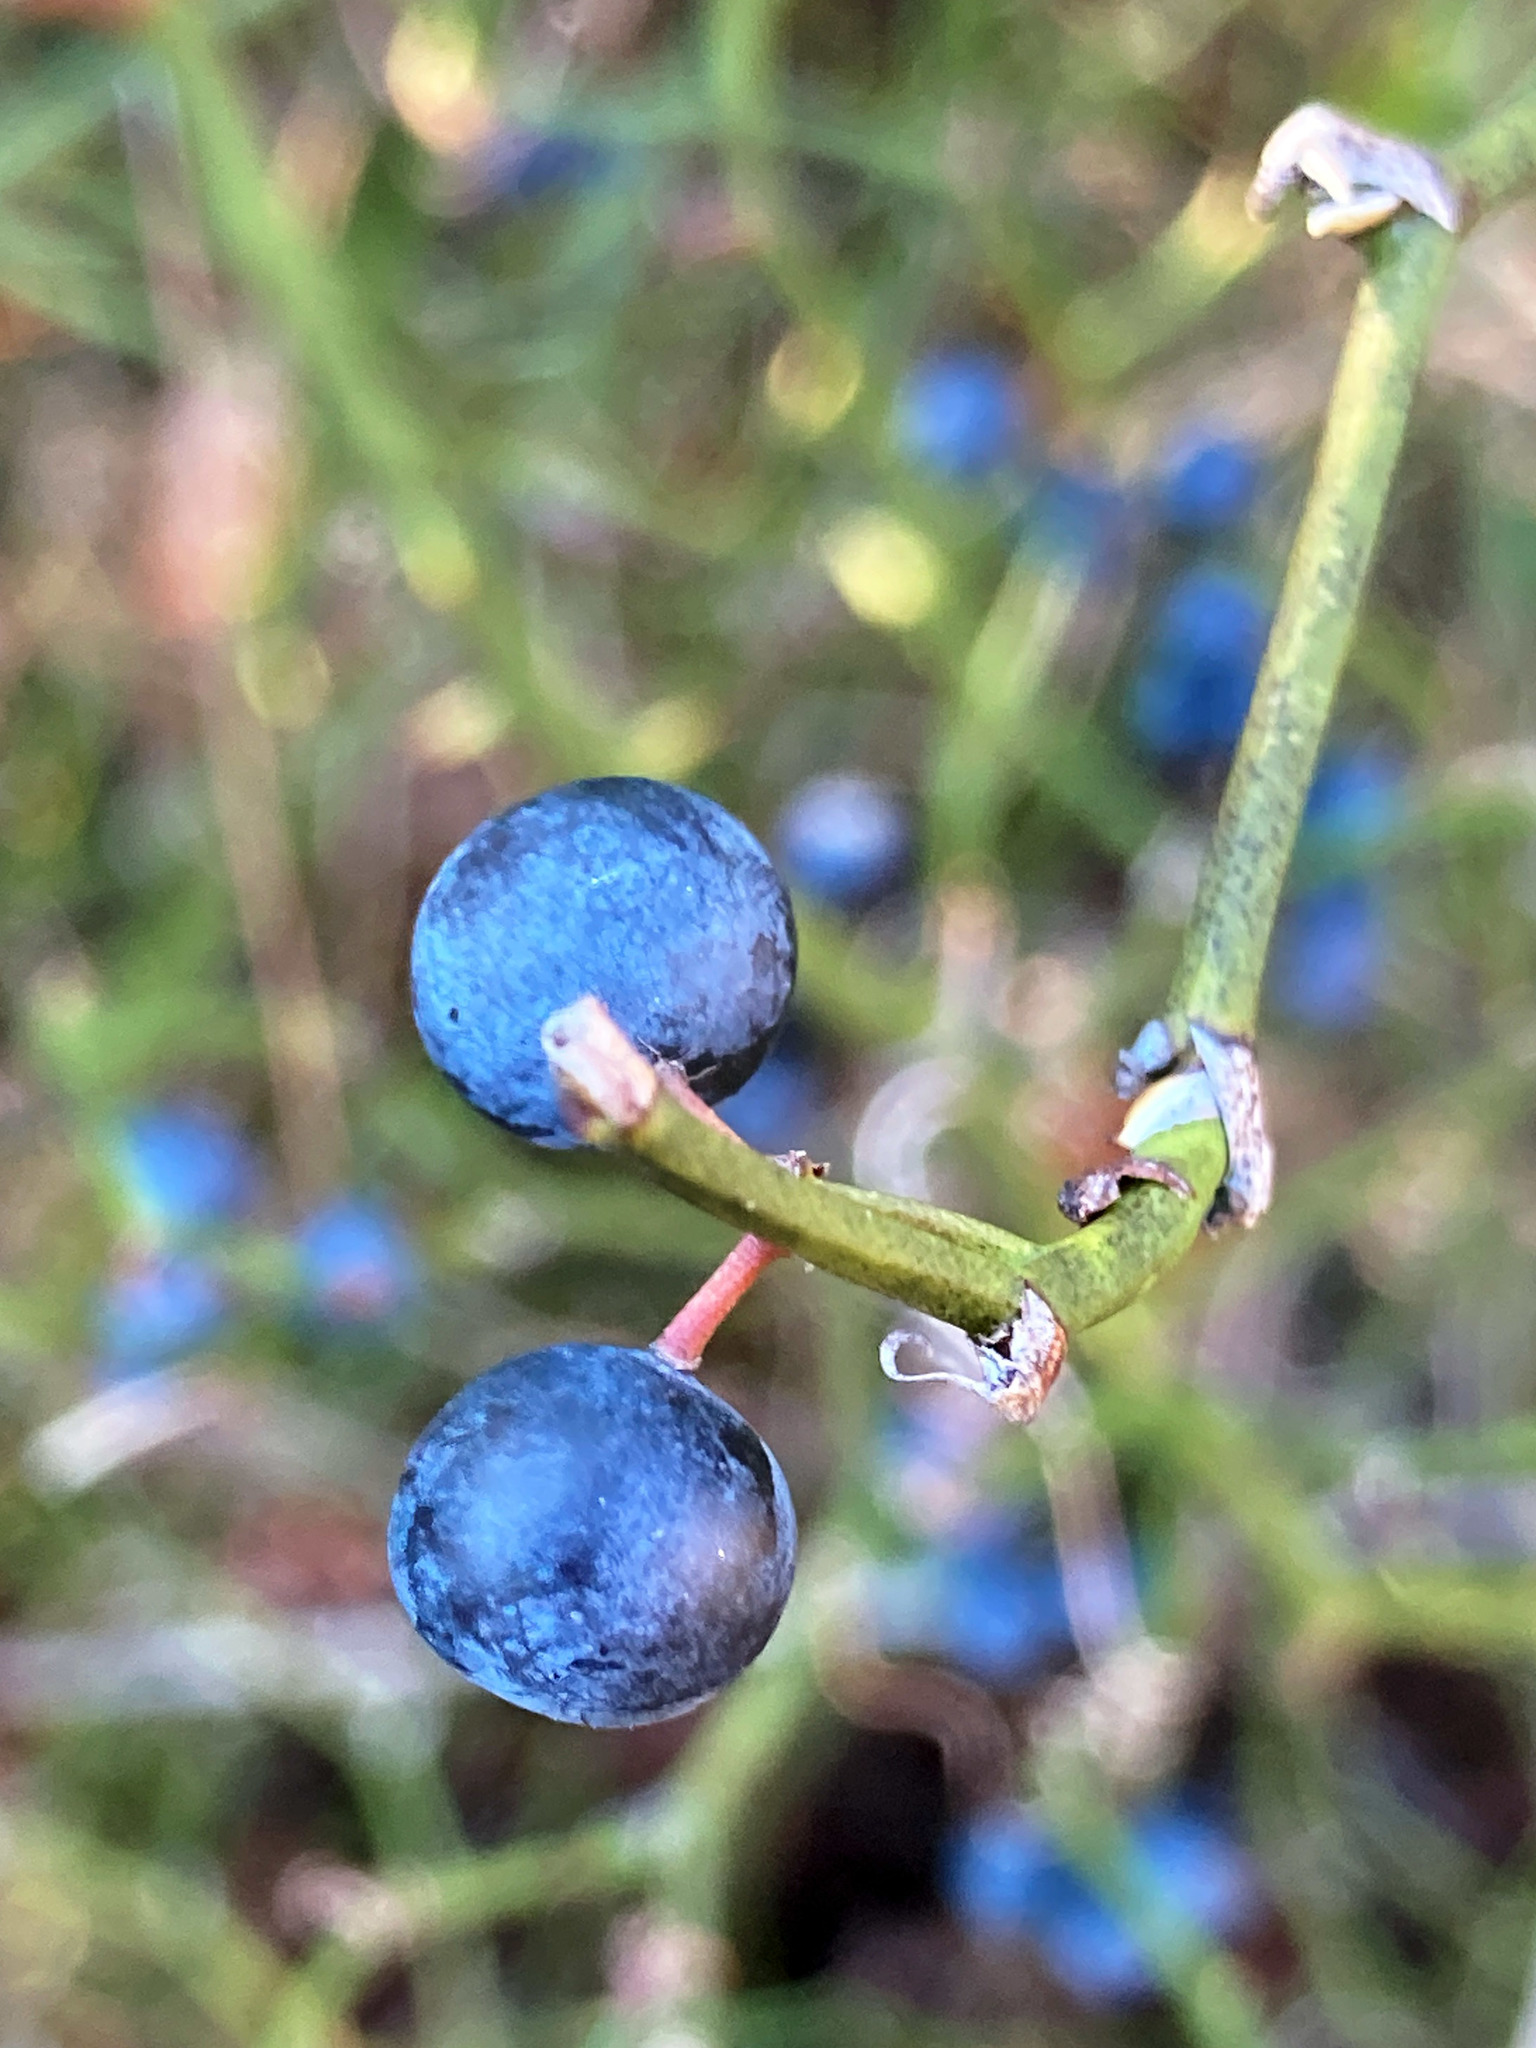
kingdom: Plantae
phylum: Tracheophyta
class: Liliopsida
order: Liliales
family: Smilacaceae
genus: Smilax
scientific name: Smilax rotundifolia
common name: Bullbriar
